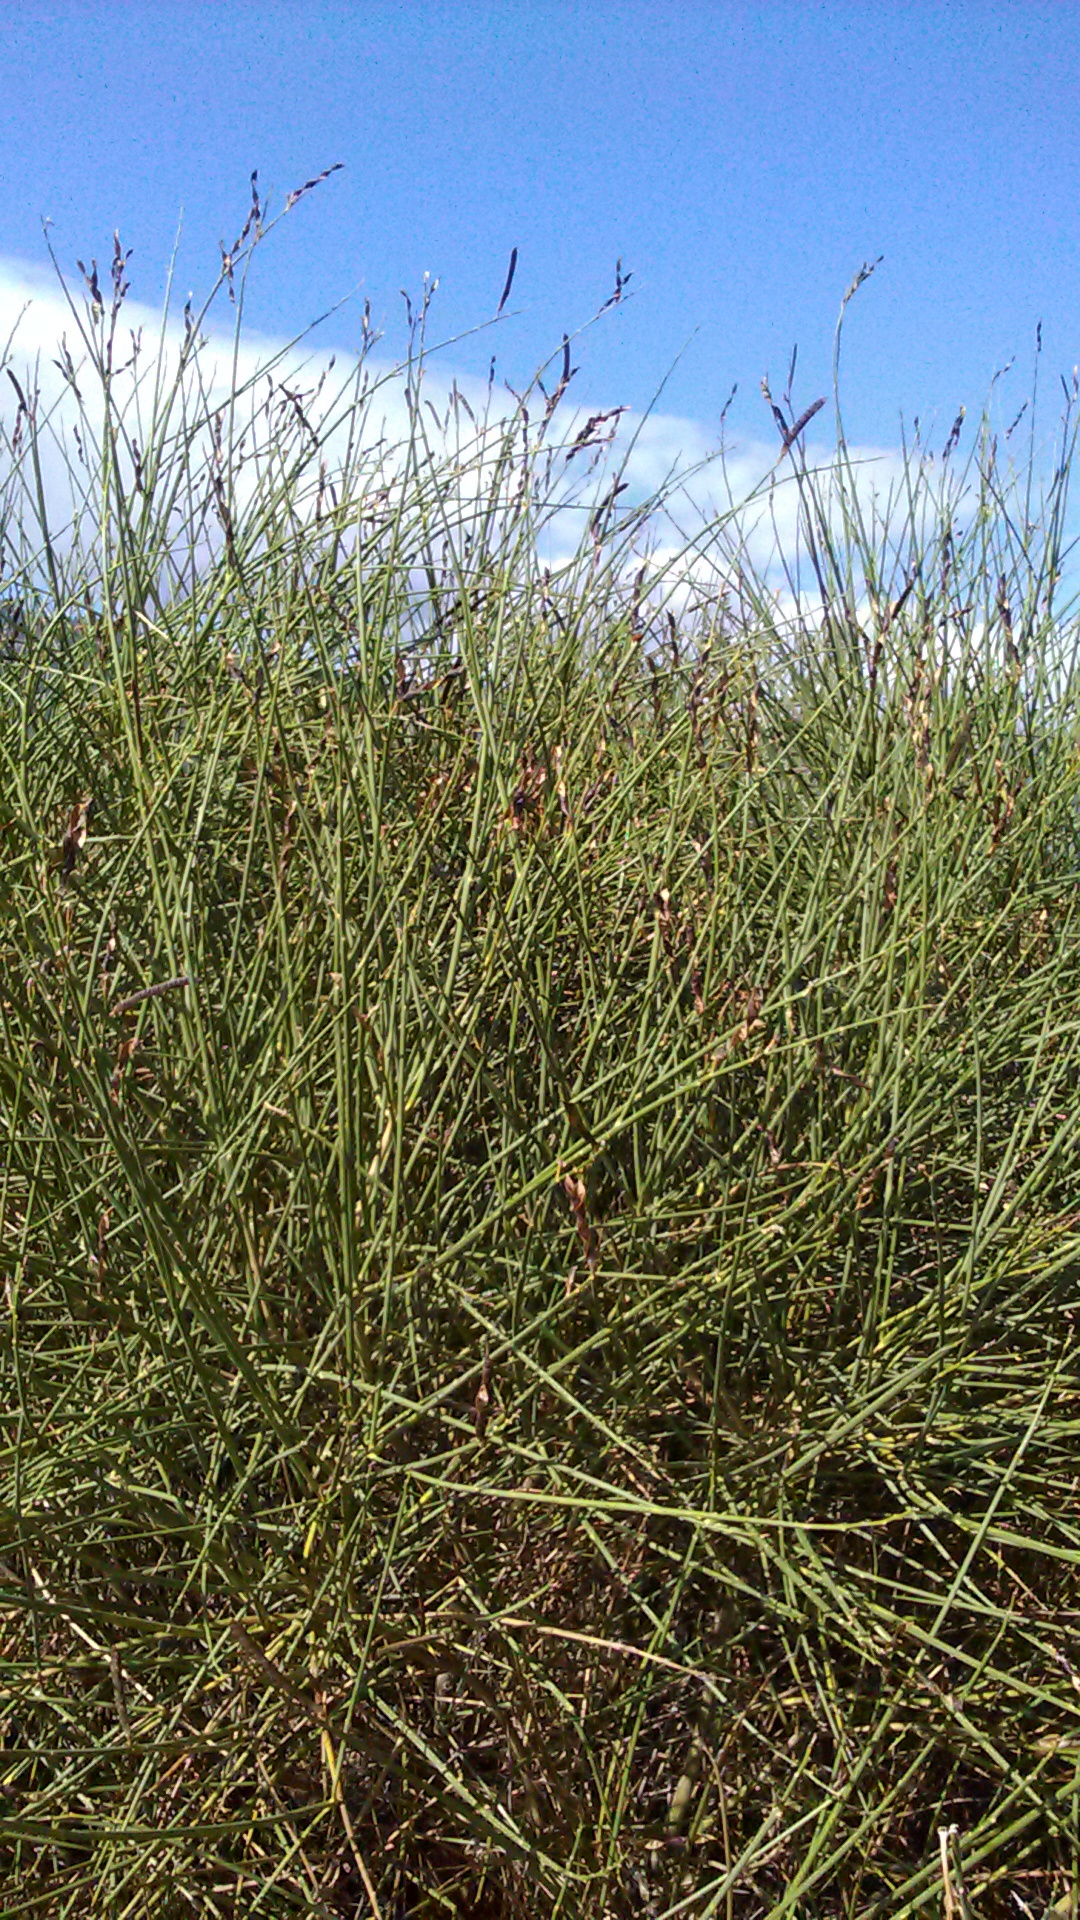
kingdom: Plantae
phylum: Tracheophyta
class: Magnoliopsida
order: Fabales
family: Fabaceae
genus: Spartium
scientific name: Spartium junceum
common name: Spanish broom
